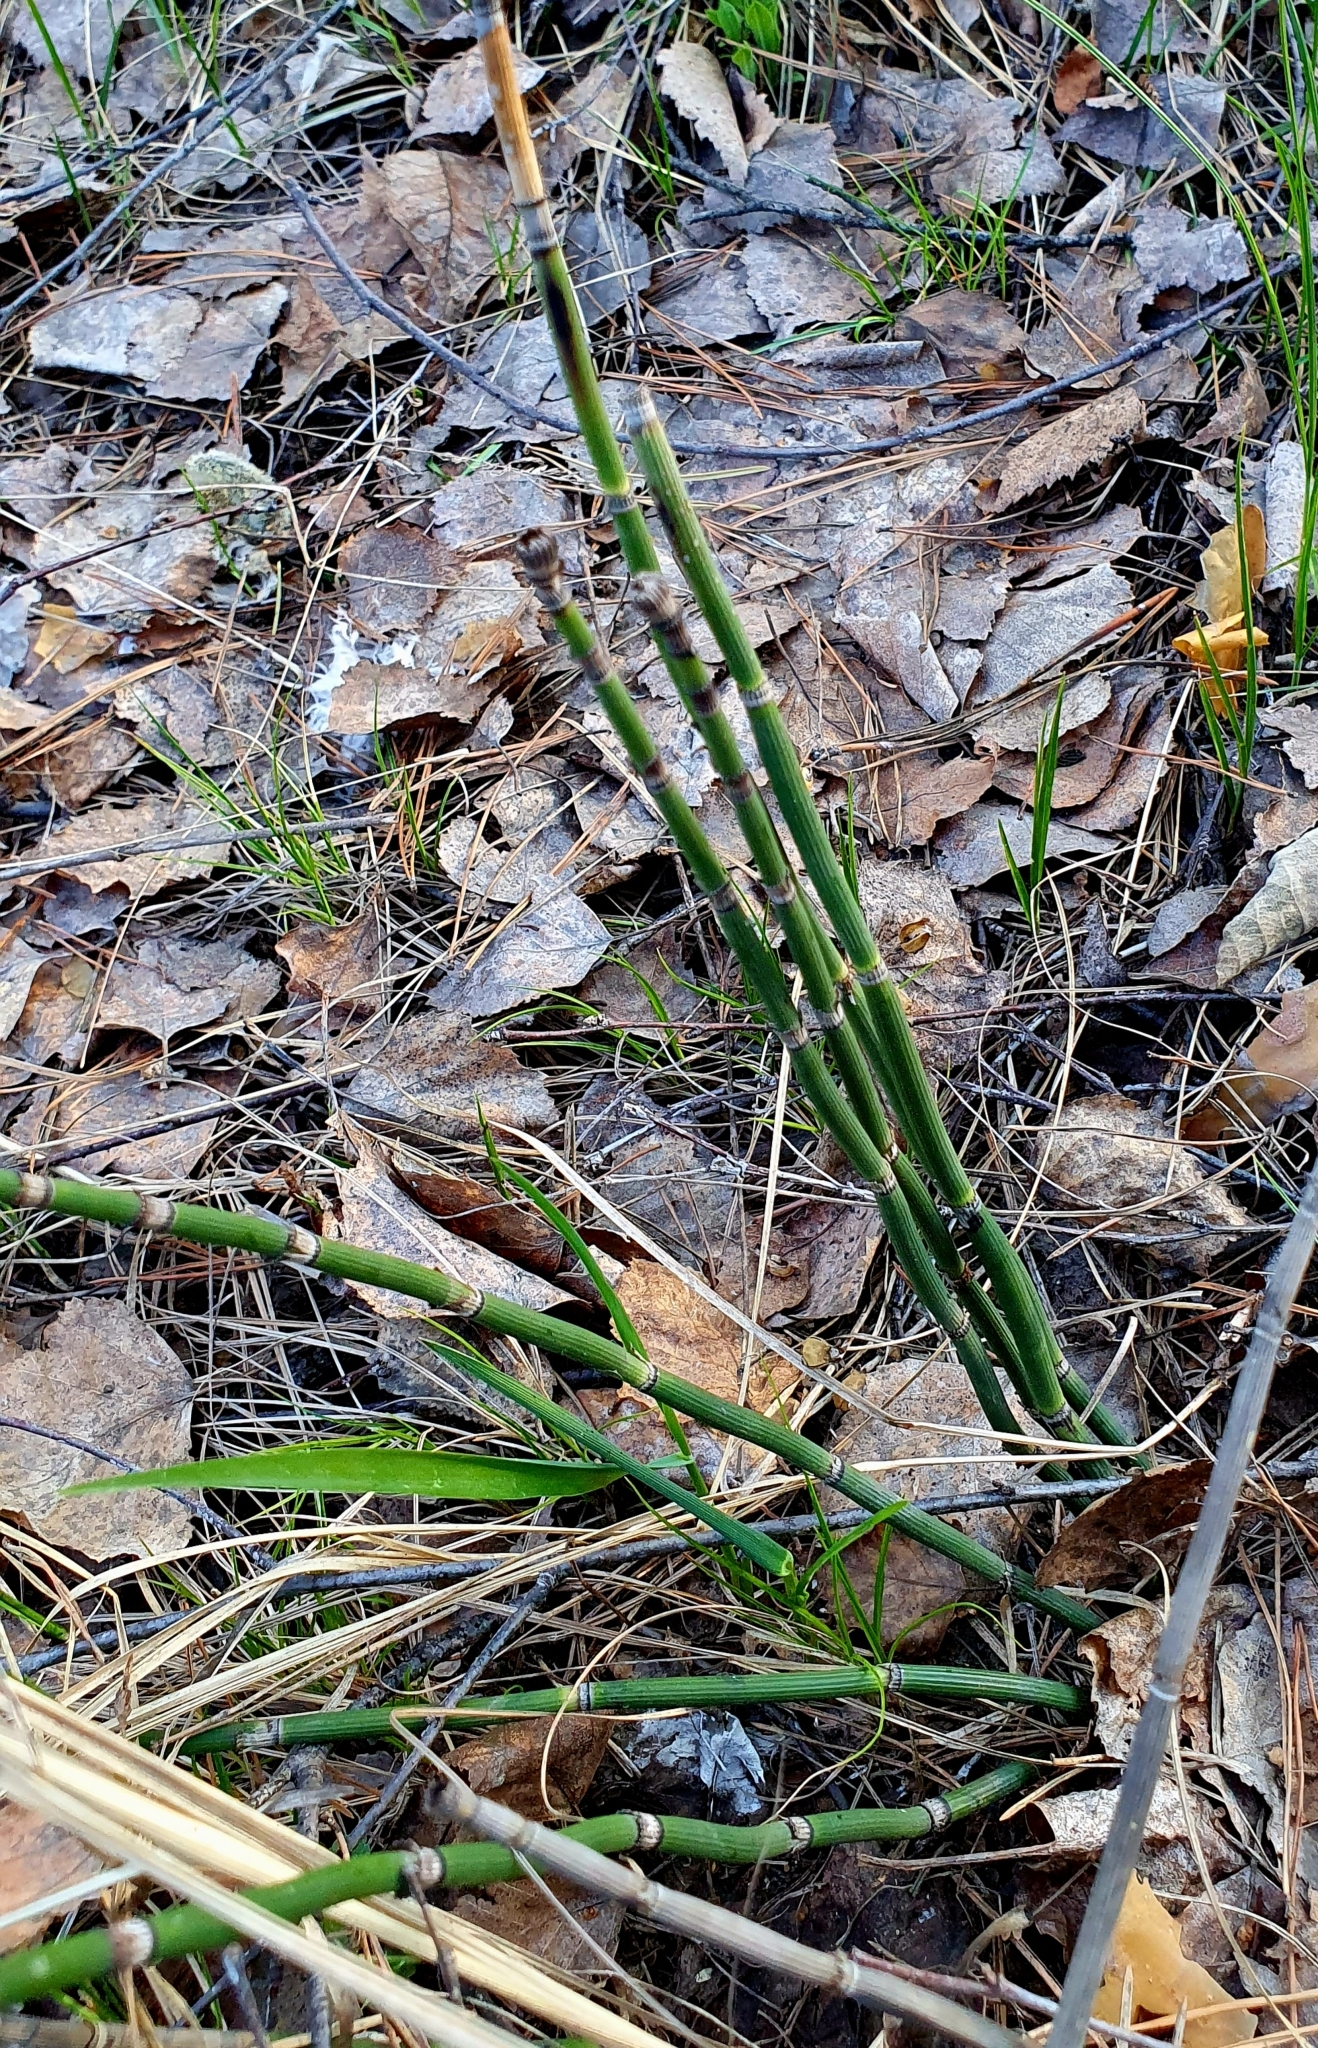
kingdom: Plantae
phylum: Tracheophyta
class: Polypodiopsida
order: Equisetales
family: Equisetaceae
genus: Equisetum
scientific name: Equisetum hyemale
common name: Rough horsetail
